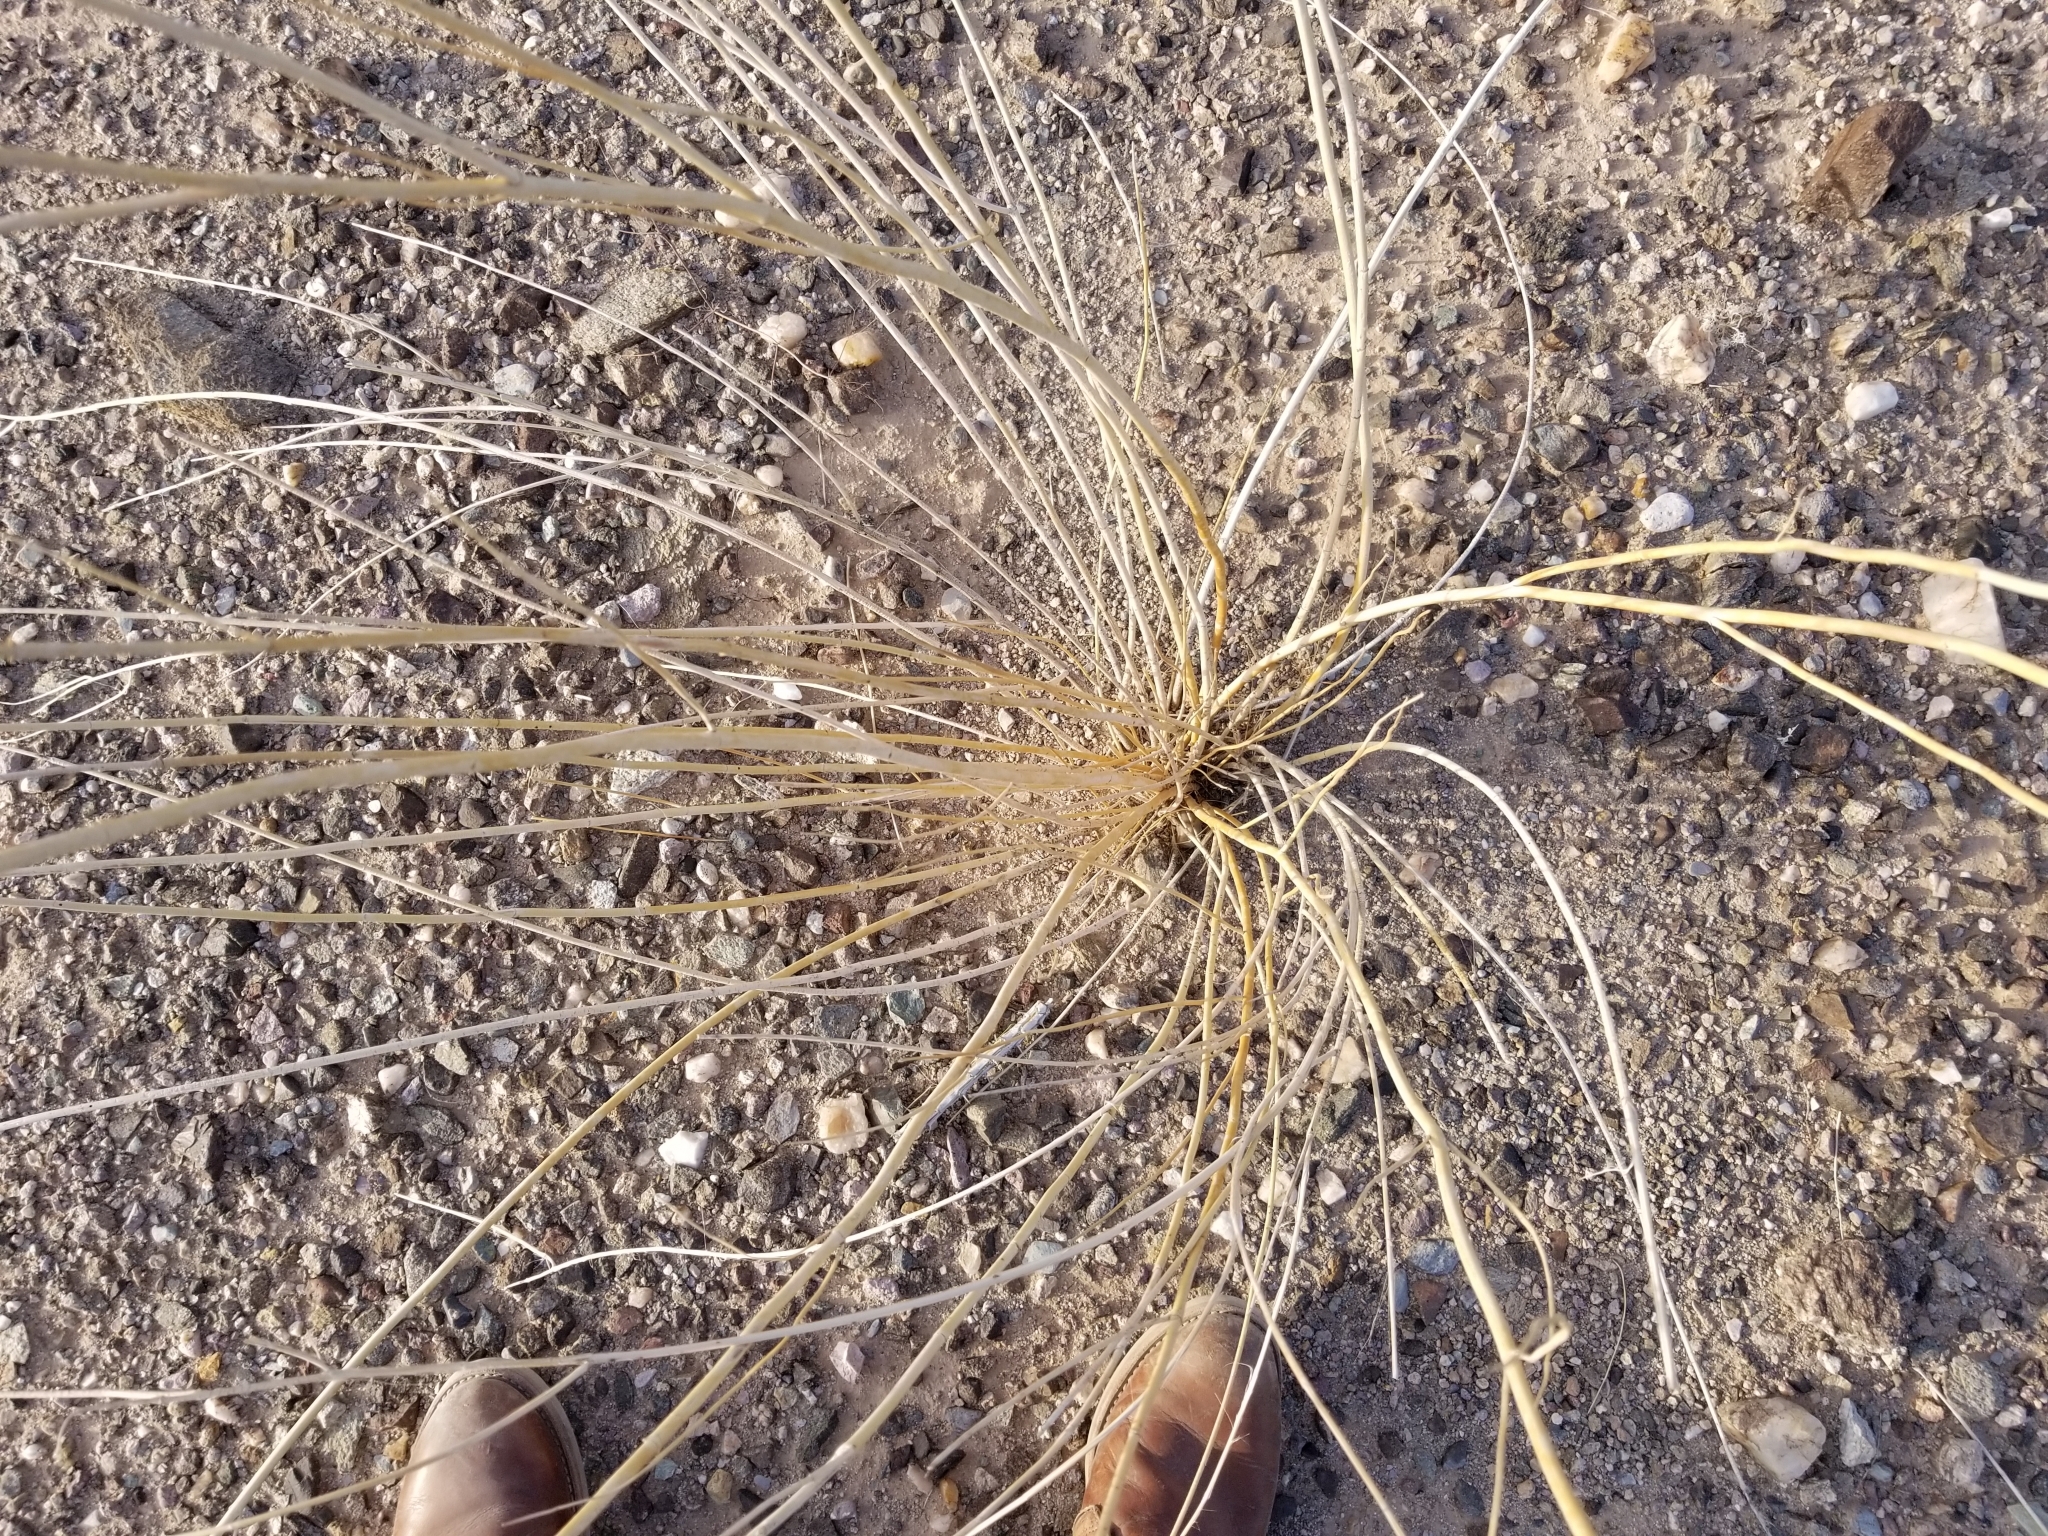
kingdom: Plantae
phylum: Tracheophyta
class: Magnoliopsida
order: Gentianales
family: Apocynaceae
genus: Asclepias
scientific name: Asclepias subulata
